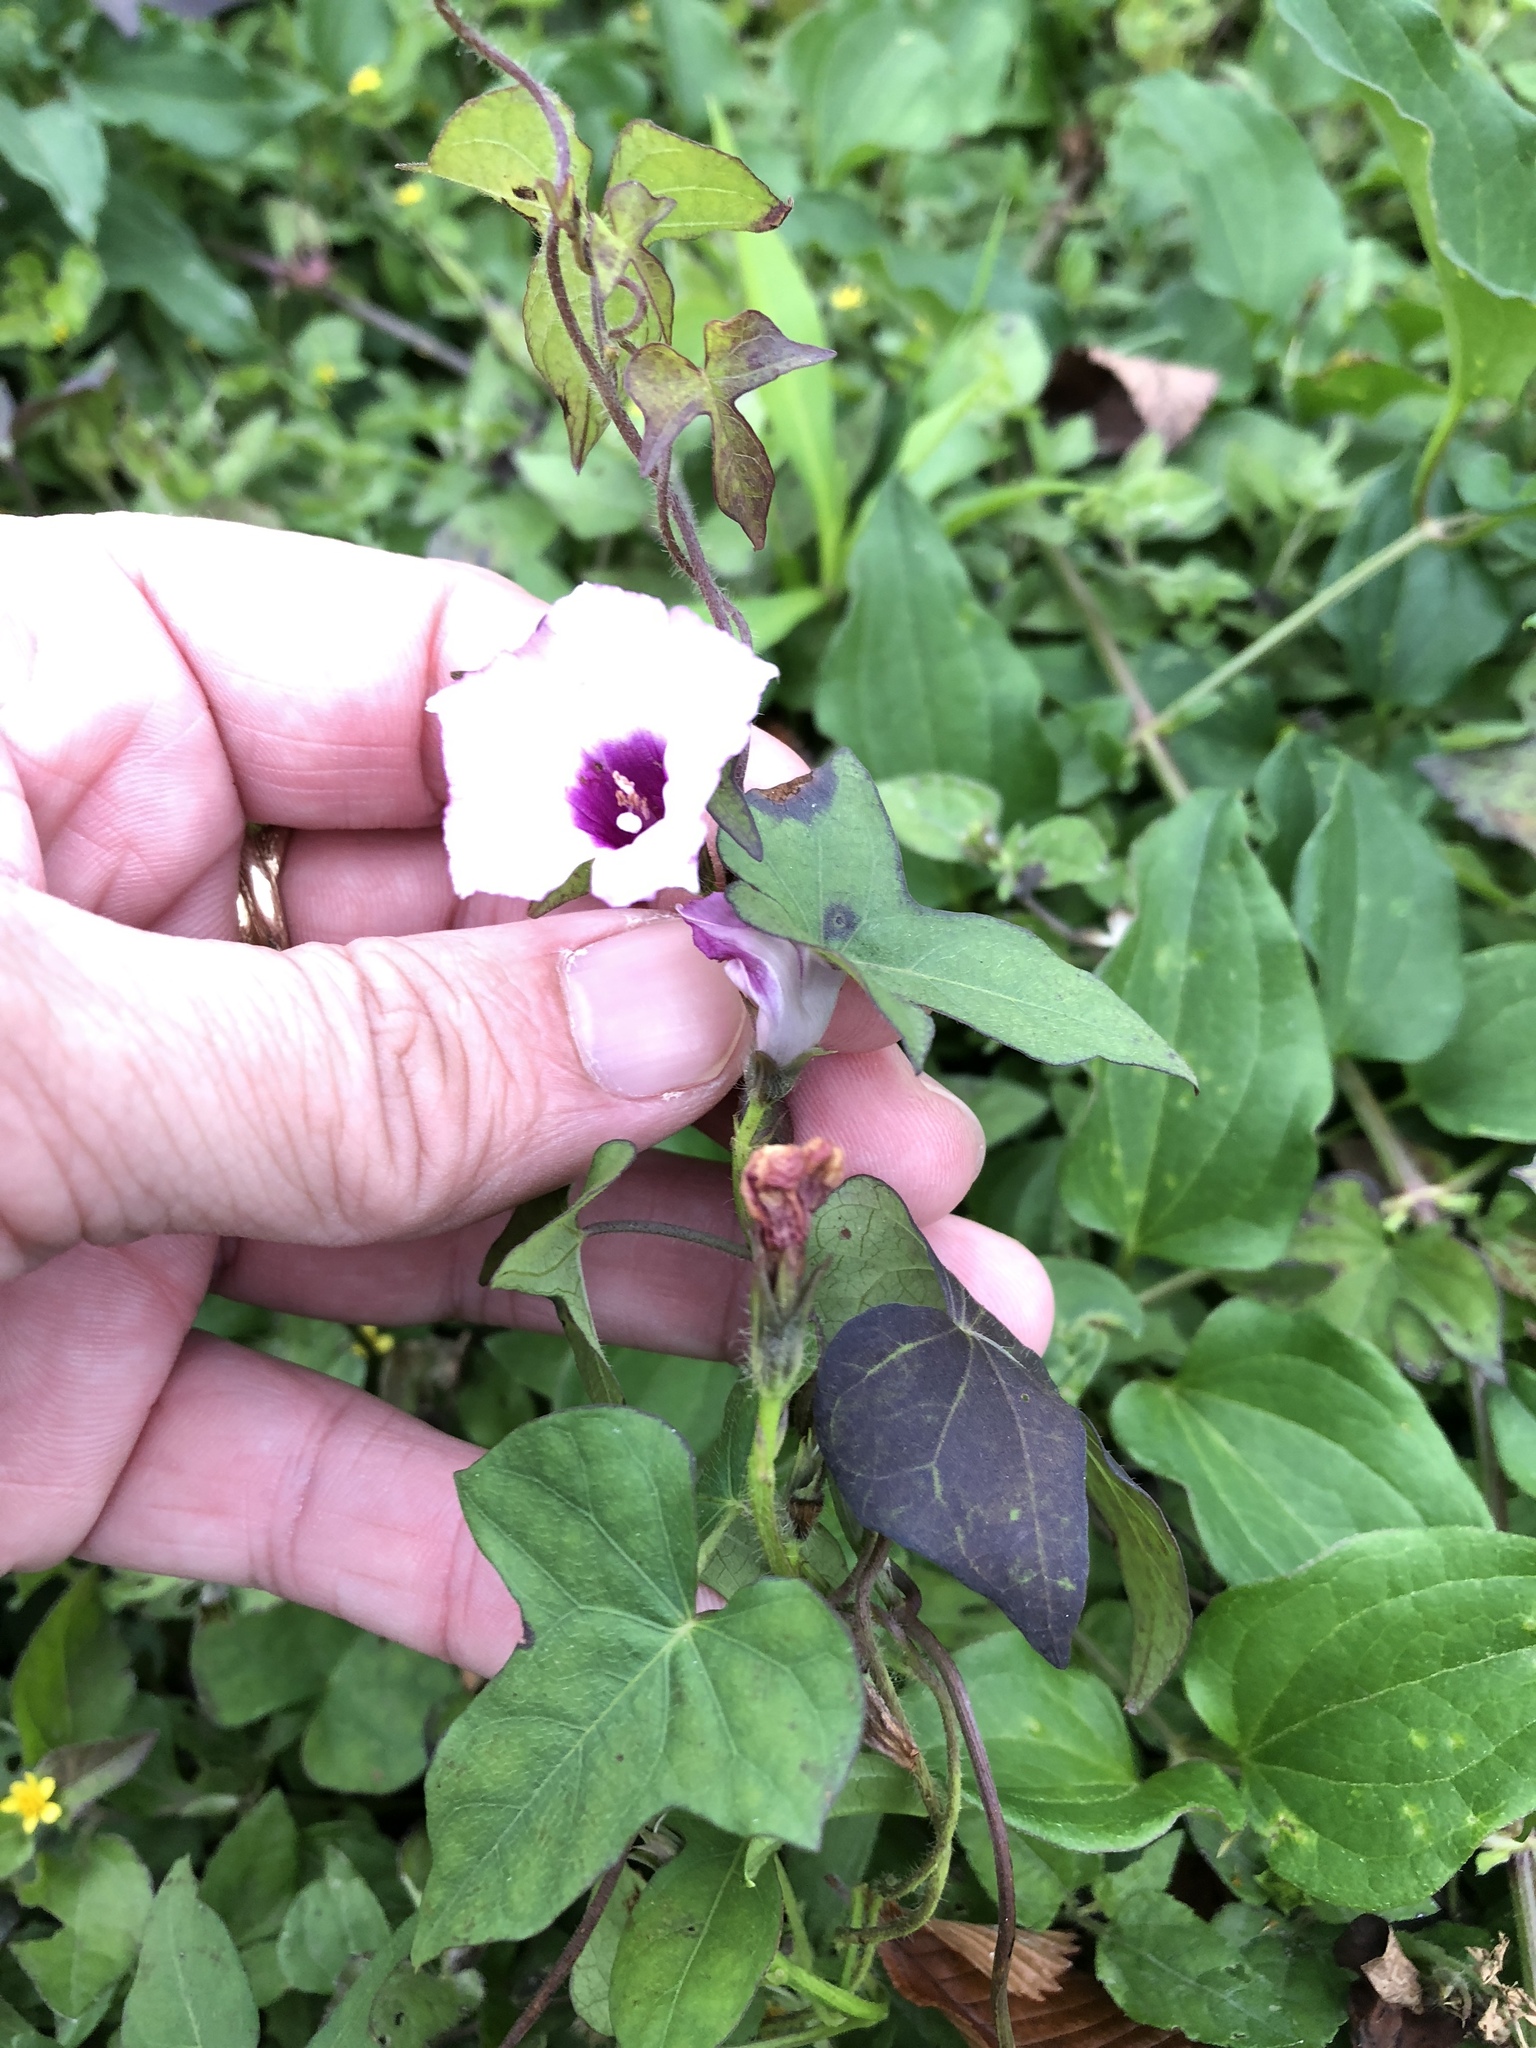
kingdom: Plantae
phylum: Tracheophyta
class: Magnoliopsida
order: Solanales
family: Convolvulaceae
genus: Ipomoea
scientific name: Ipomoea cordatotriloba
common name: Cotton morning glory
